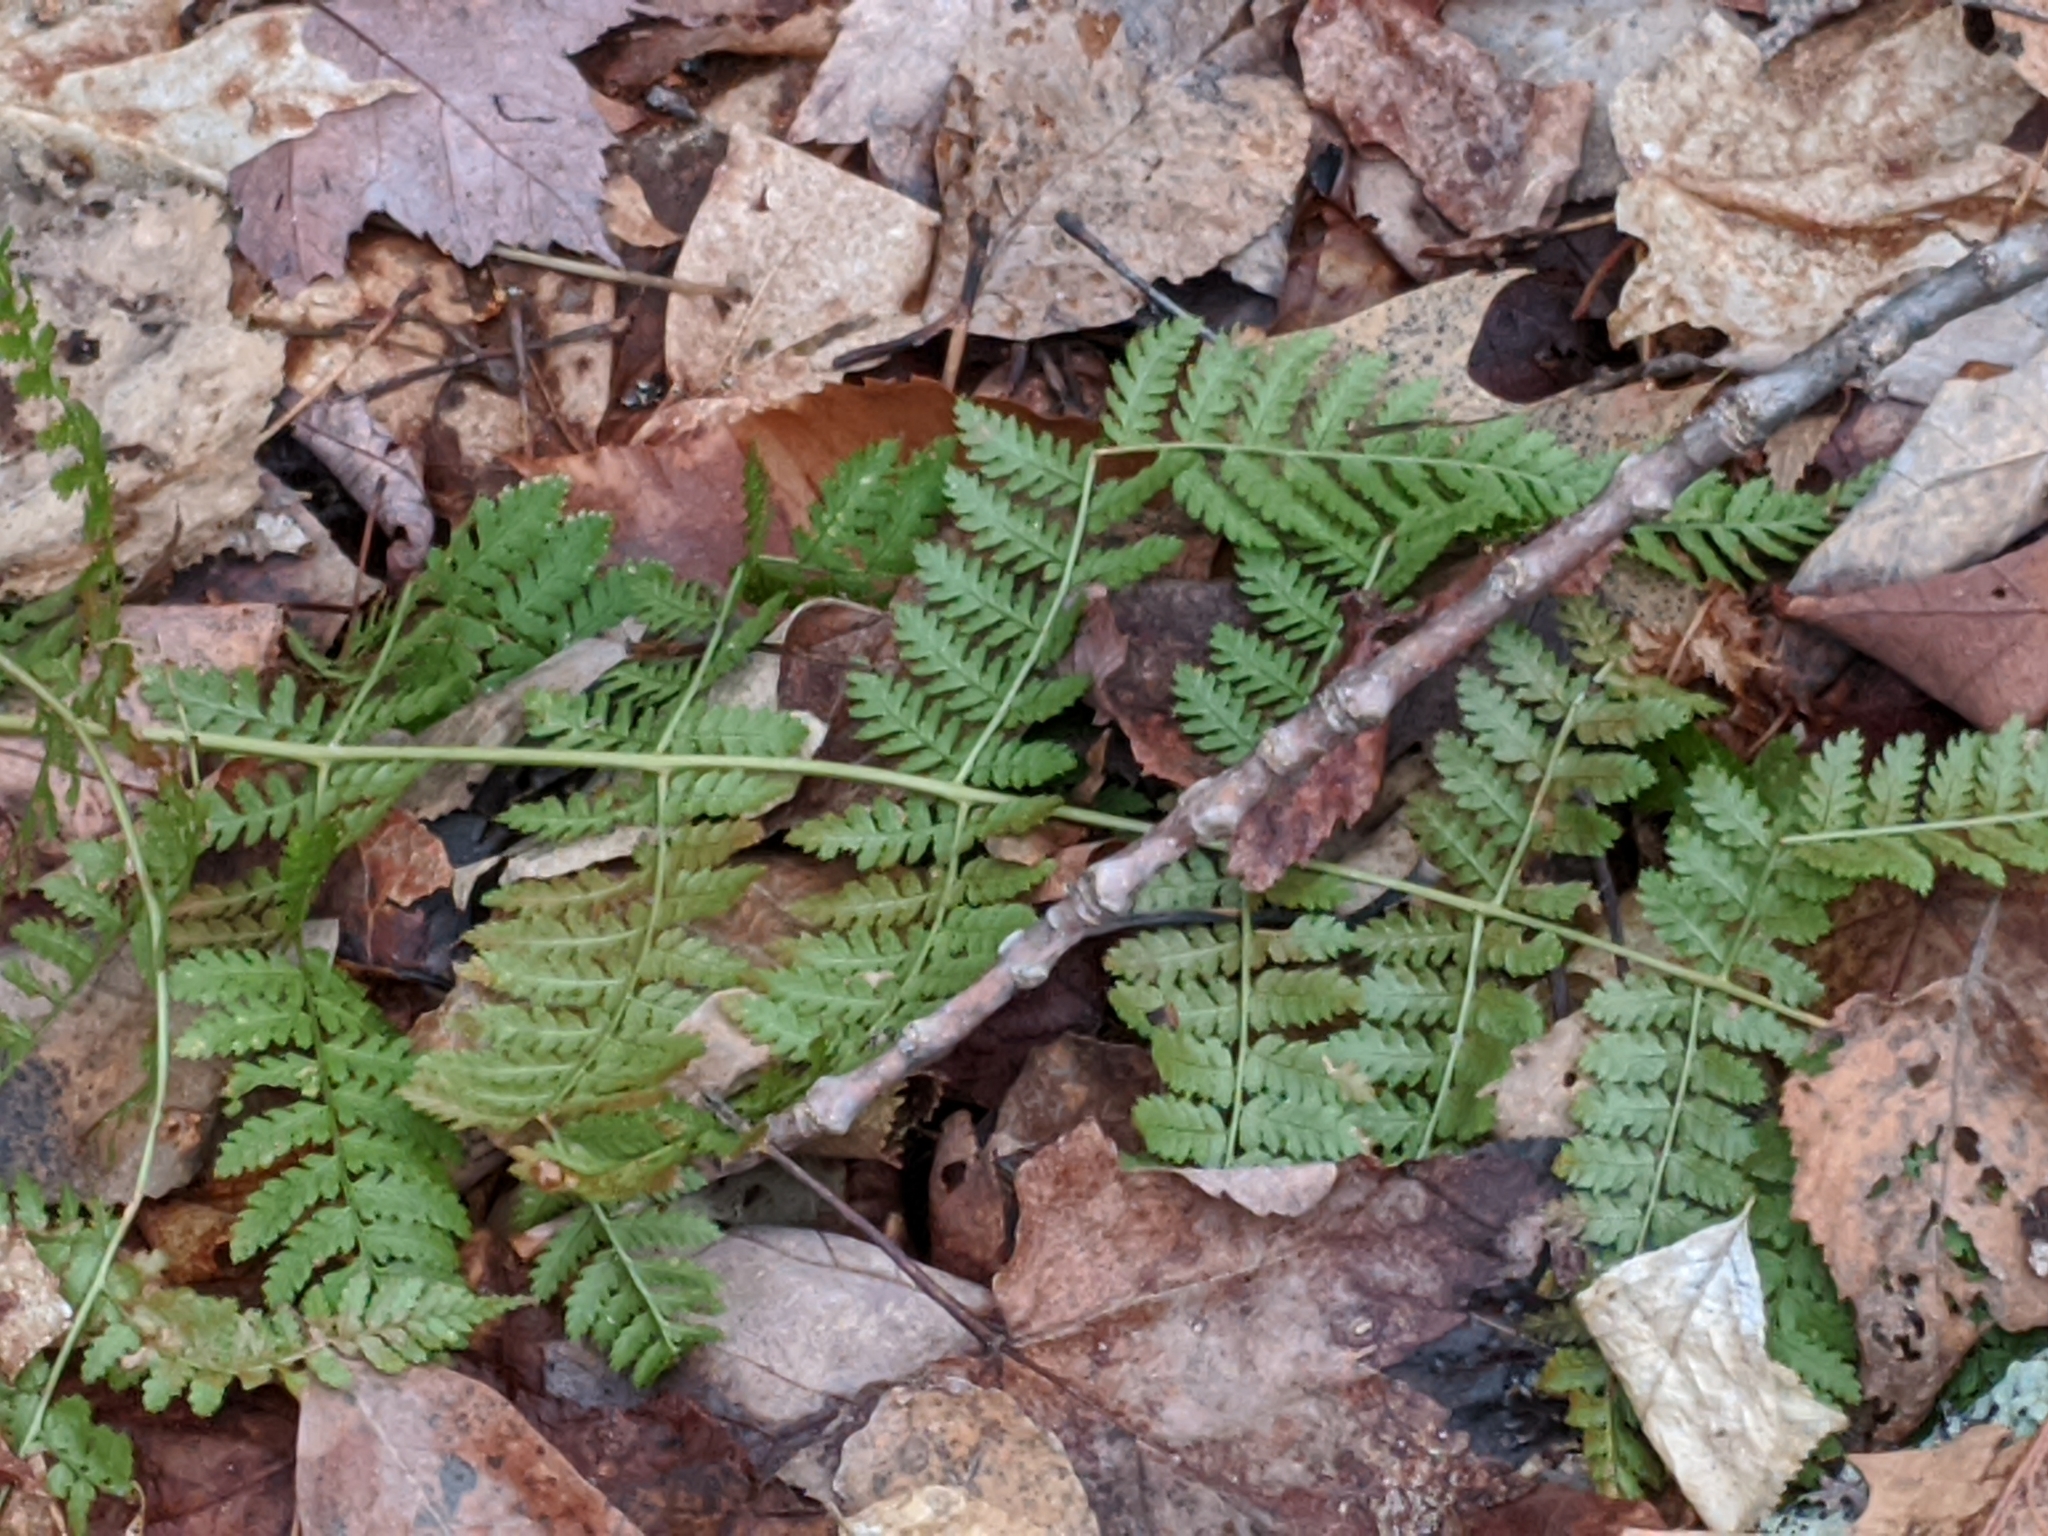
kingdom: Plantae
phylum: Tracheophyta
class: Polypodiopsida
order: Polypodiales
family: Dryopteridaceae
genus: Dryopteris
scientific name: Dryopteris intermedia
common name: Evergreen wood fern
